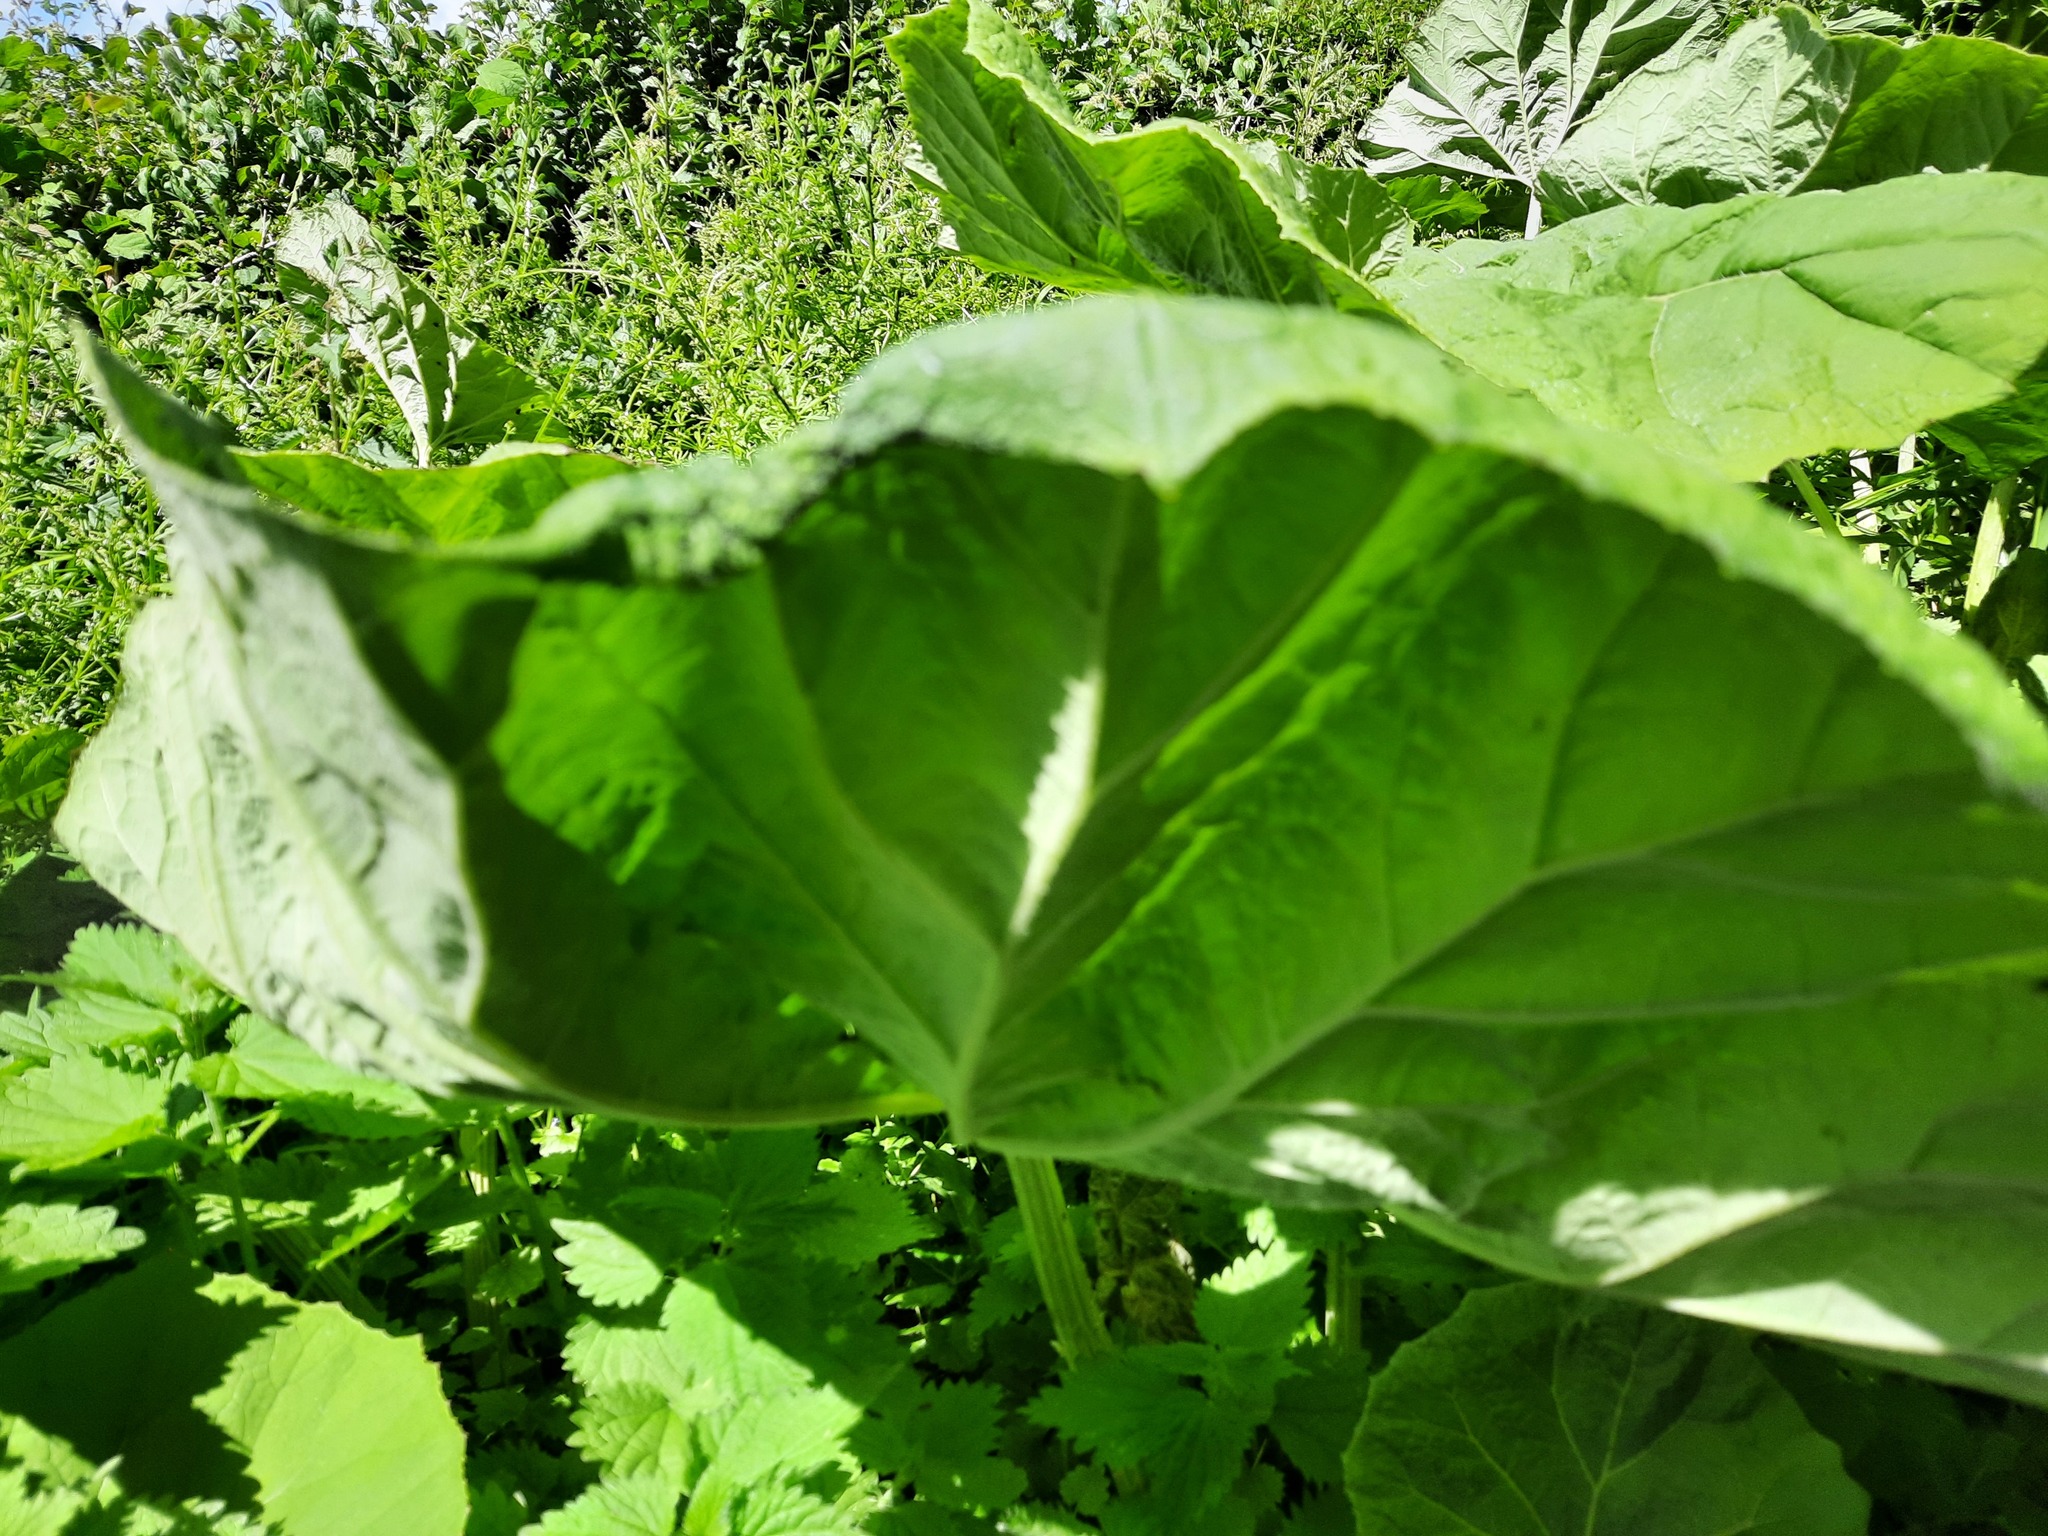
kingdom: Plantae
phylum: Tracheophyta
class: Magnoliopsida
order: Asterales
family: Asteraceae
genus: Petasites
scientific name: Petasites hybridus
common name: Butterbur
